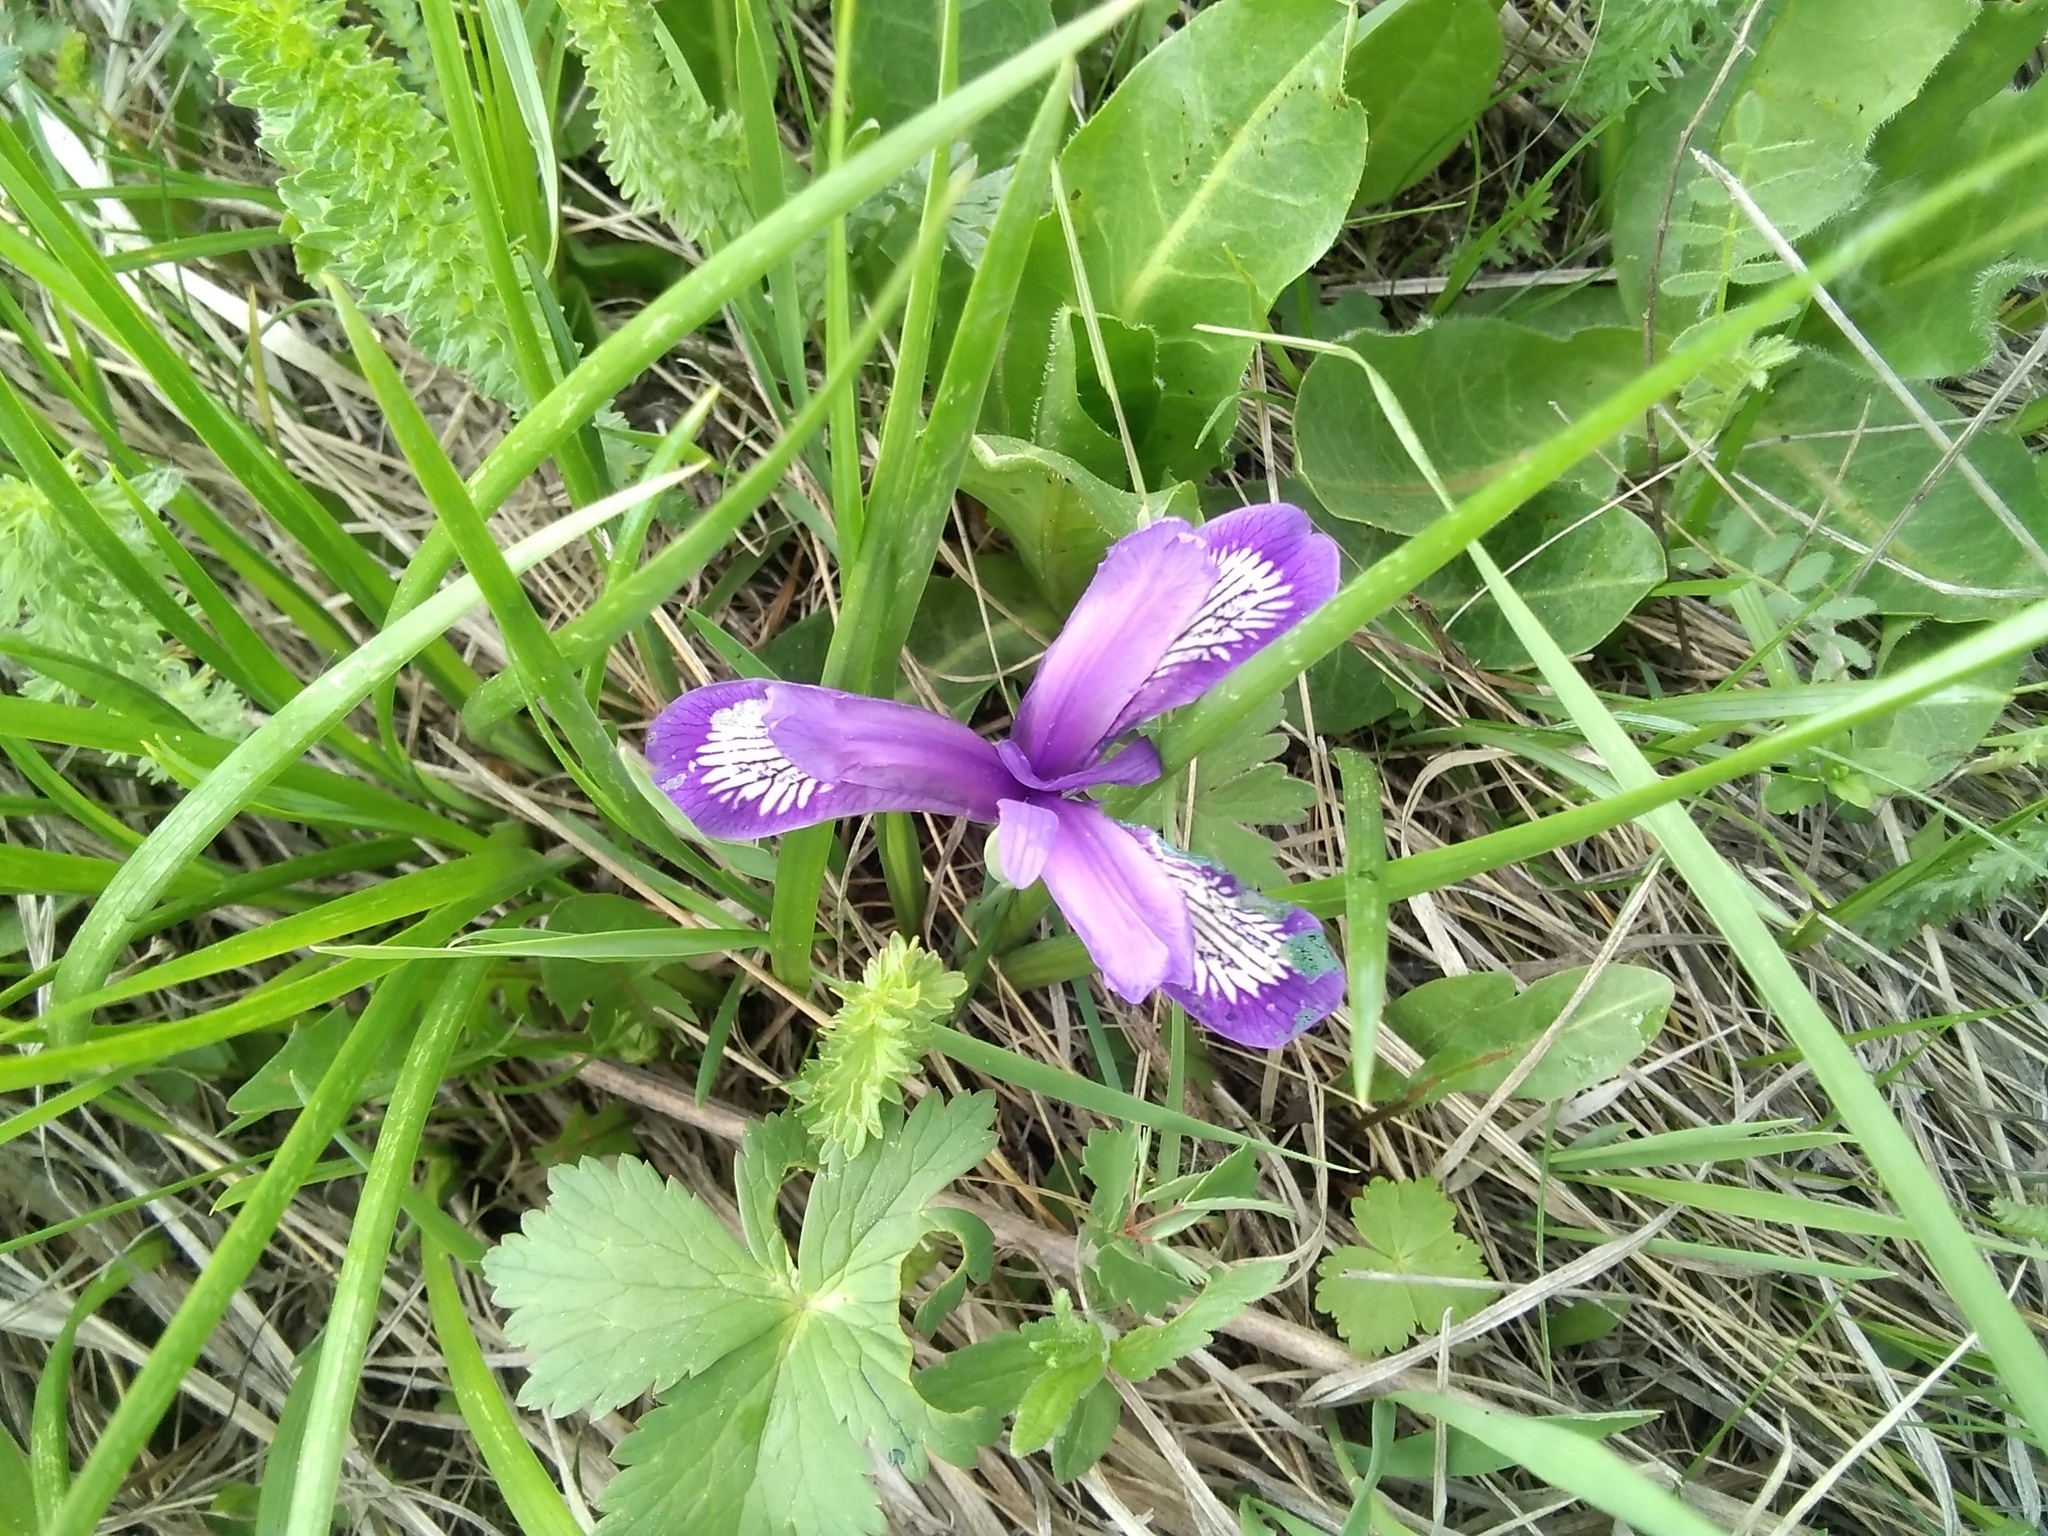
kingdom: Plantae
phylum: Tracheophyta
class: Liliopsida
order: Asparagales
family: Iridaceae
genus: Iris
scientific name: Iris ruthenica
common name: Purple-bract iris
